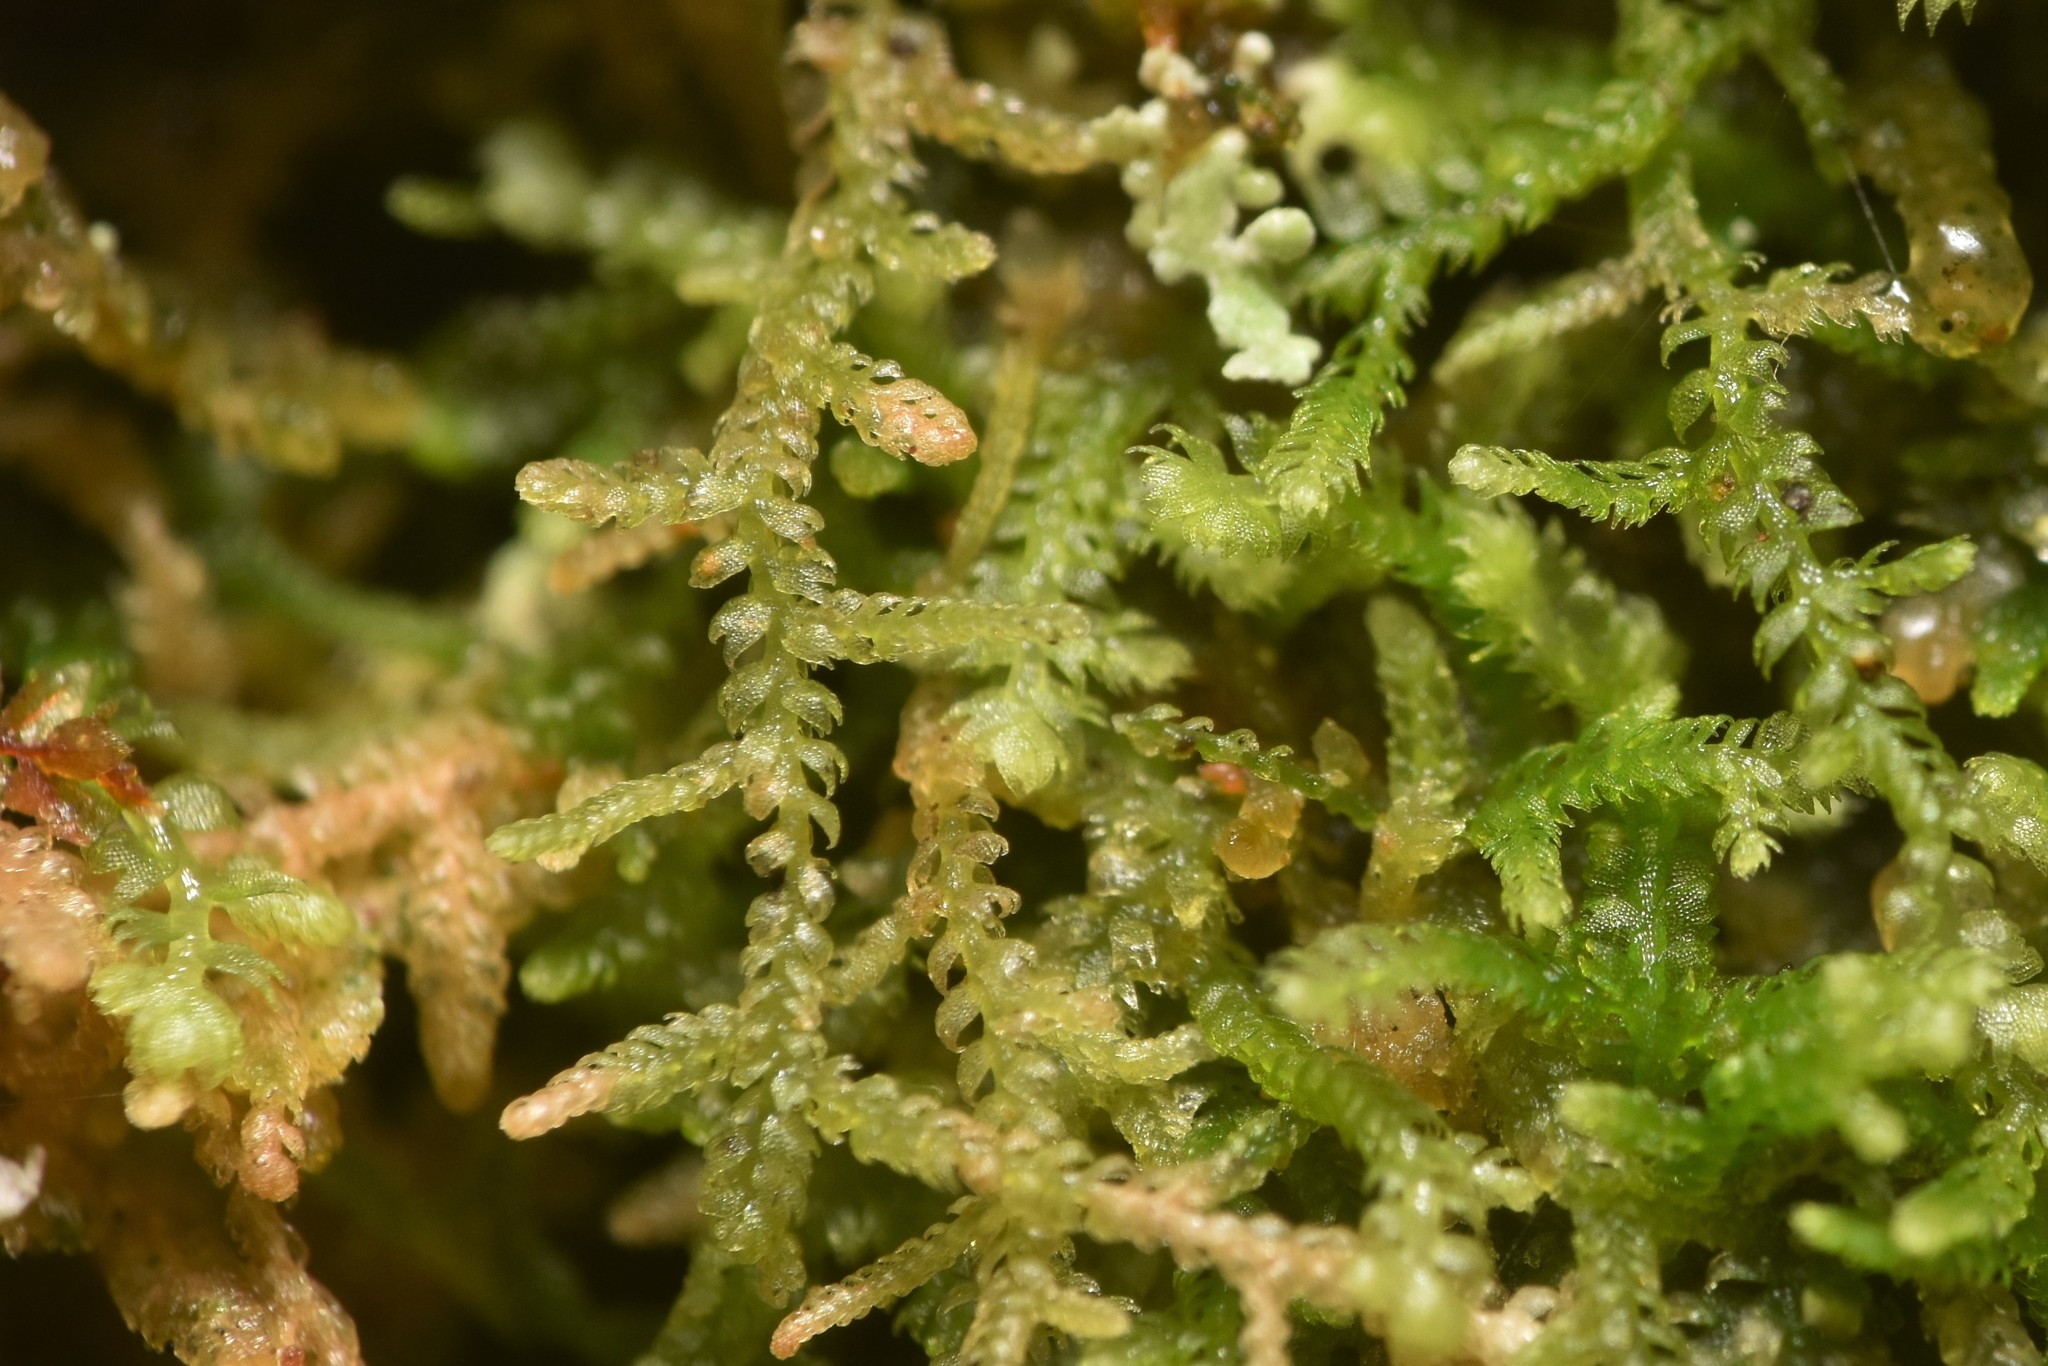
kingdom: Plantae
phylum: Marchantiophyta
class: Jungermanniopsida
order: Jungermanniales
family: Lepidoziaceae
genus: Lepidozia
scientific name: Lepidozia reptans
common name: Creeping fingerwort
